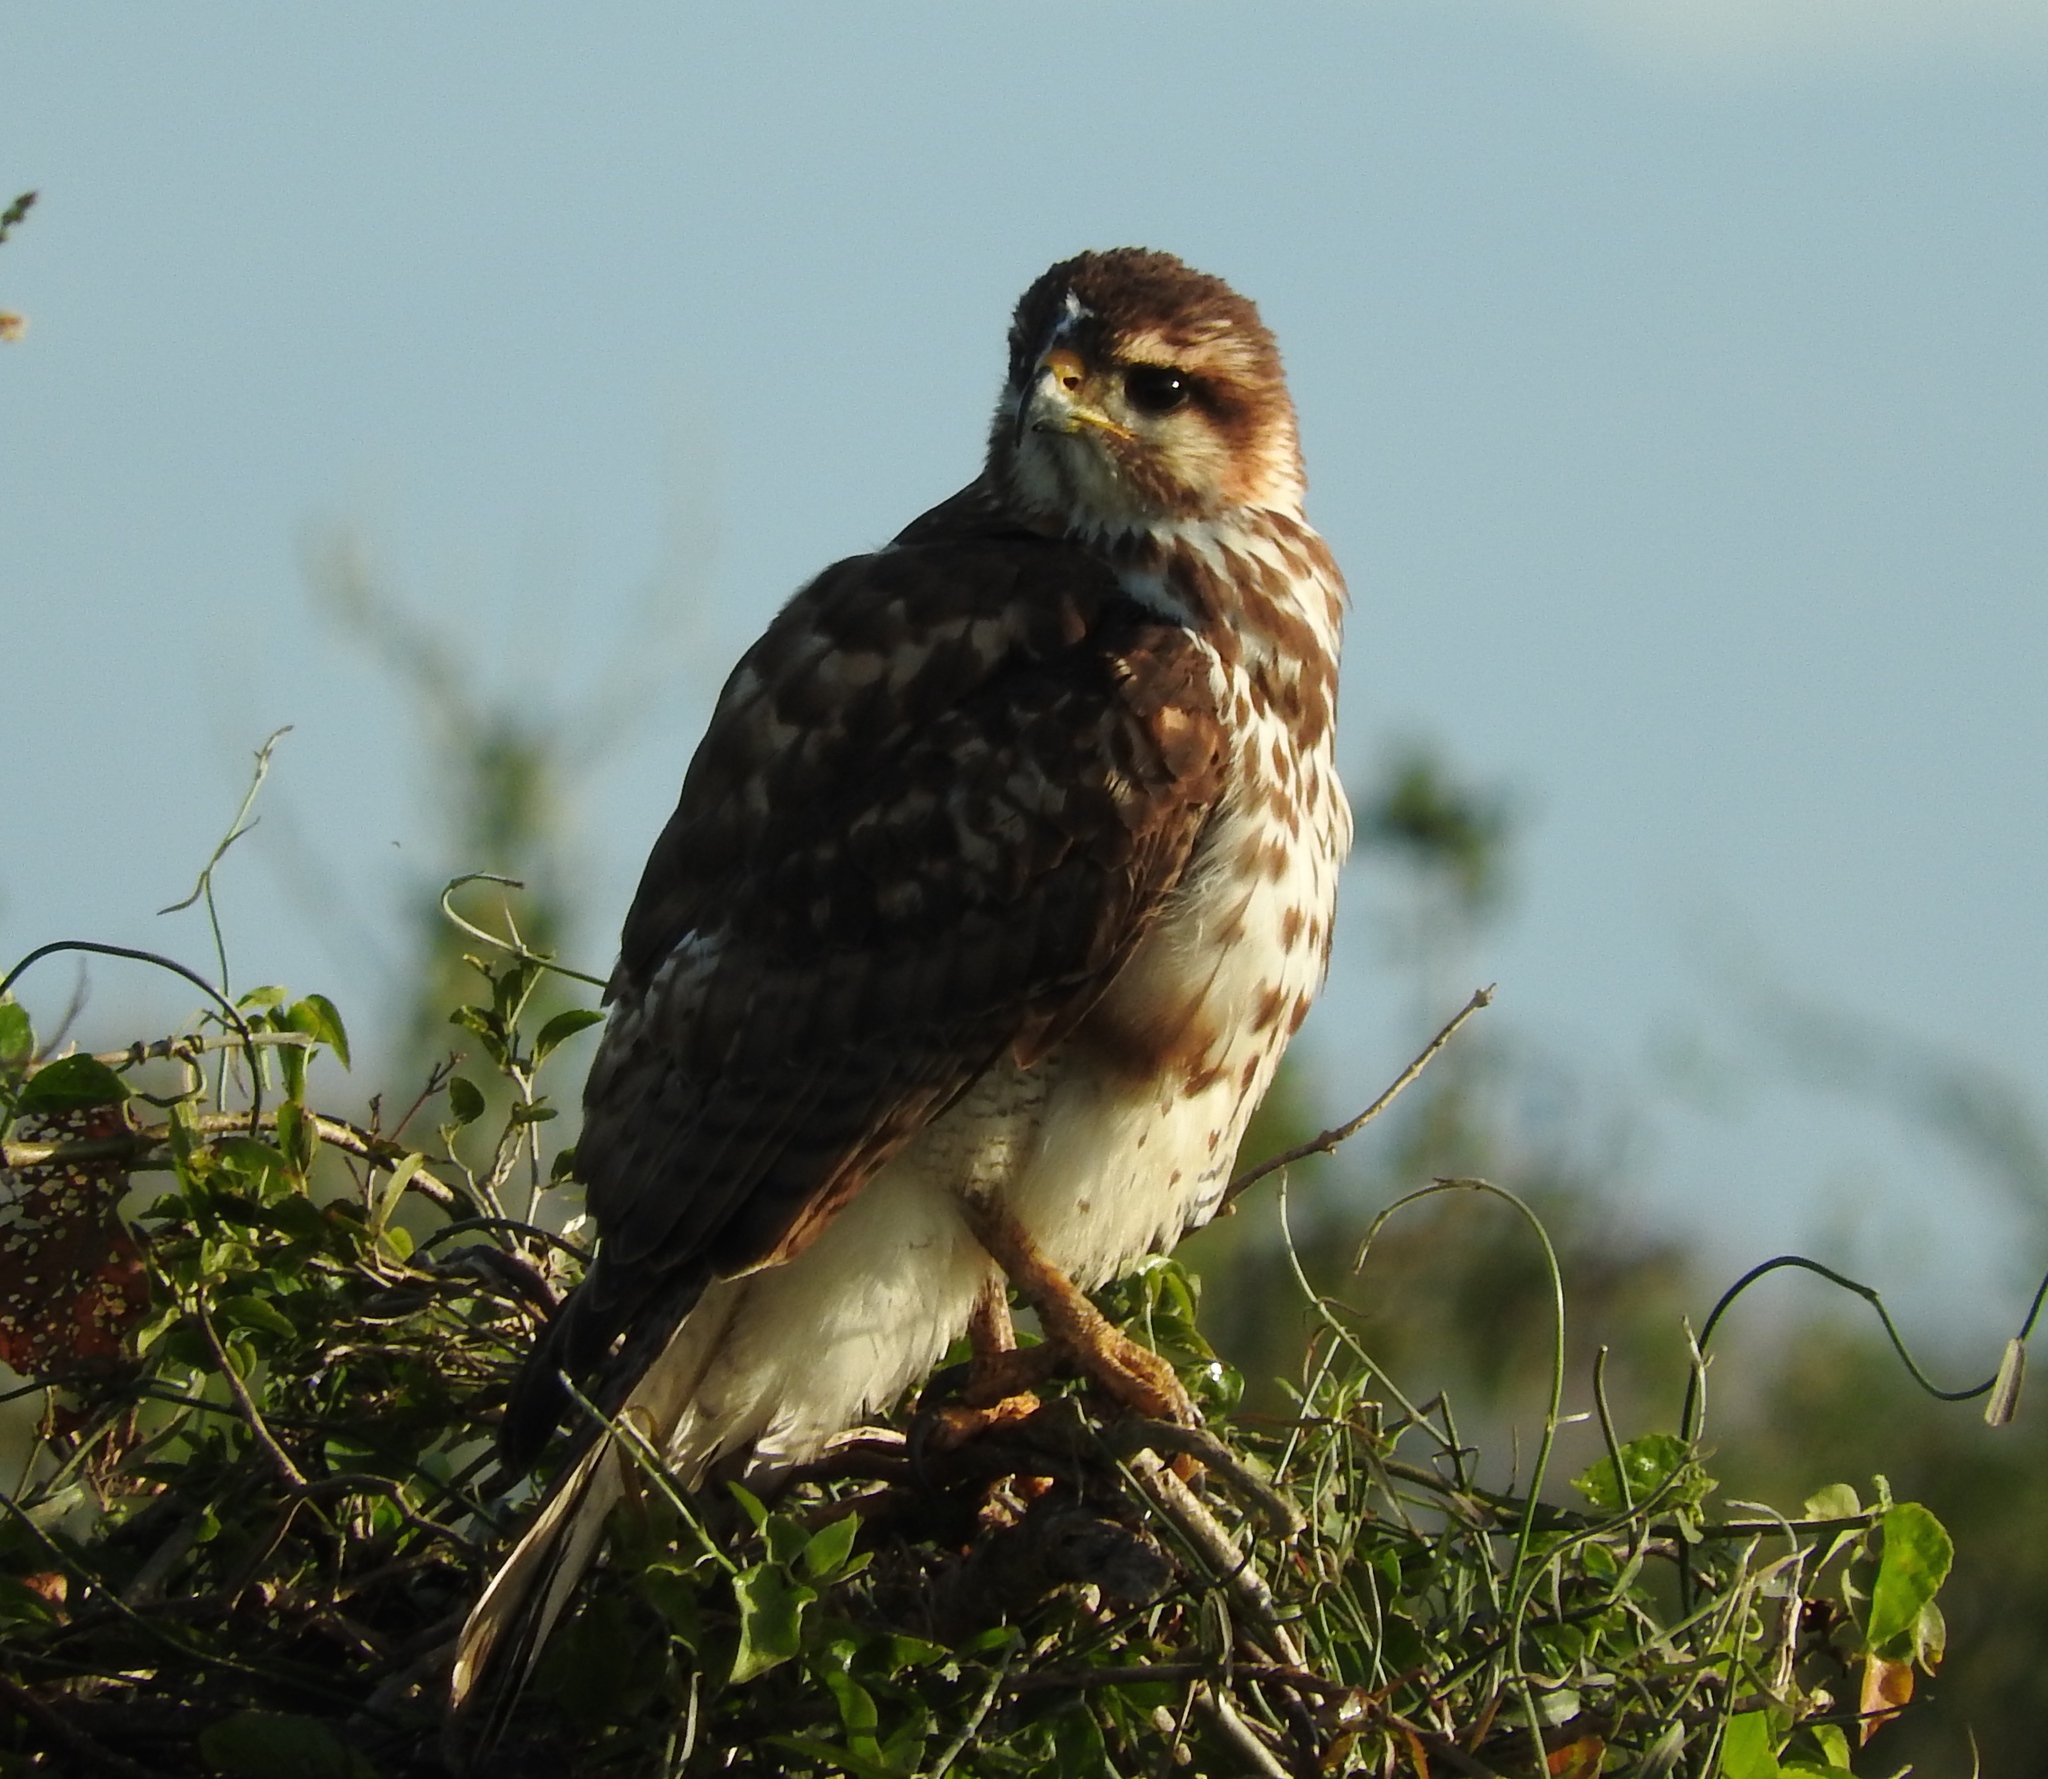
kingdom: Animalia
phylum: Chordata
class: Aves
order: Accipitriformes
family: Accipitridae
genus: Buteo
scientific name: Buteo nitidus
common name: Grey-lined hawk
